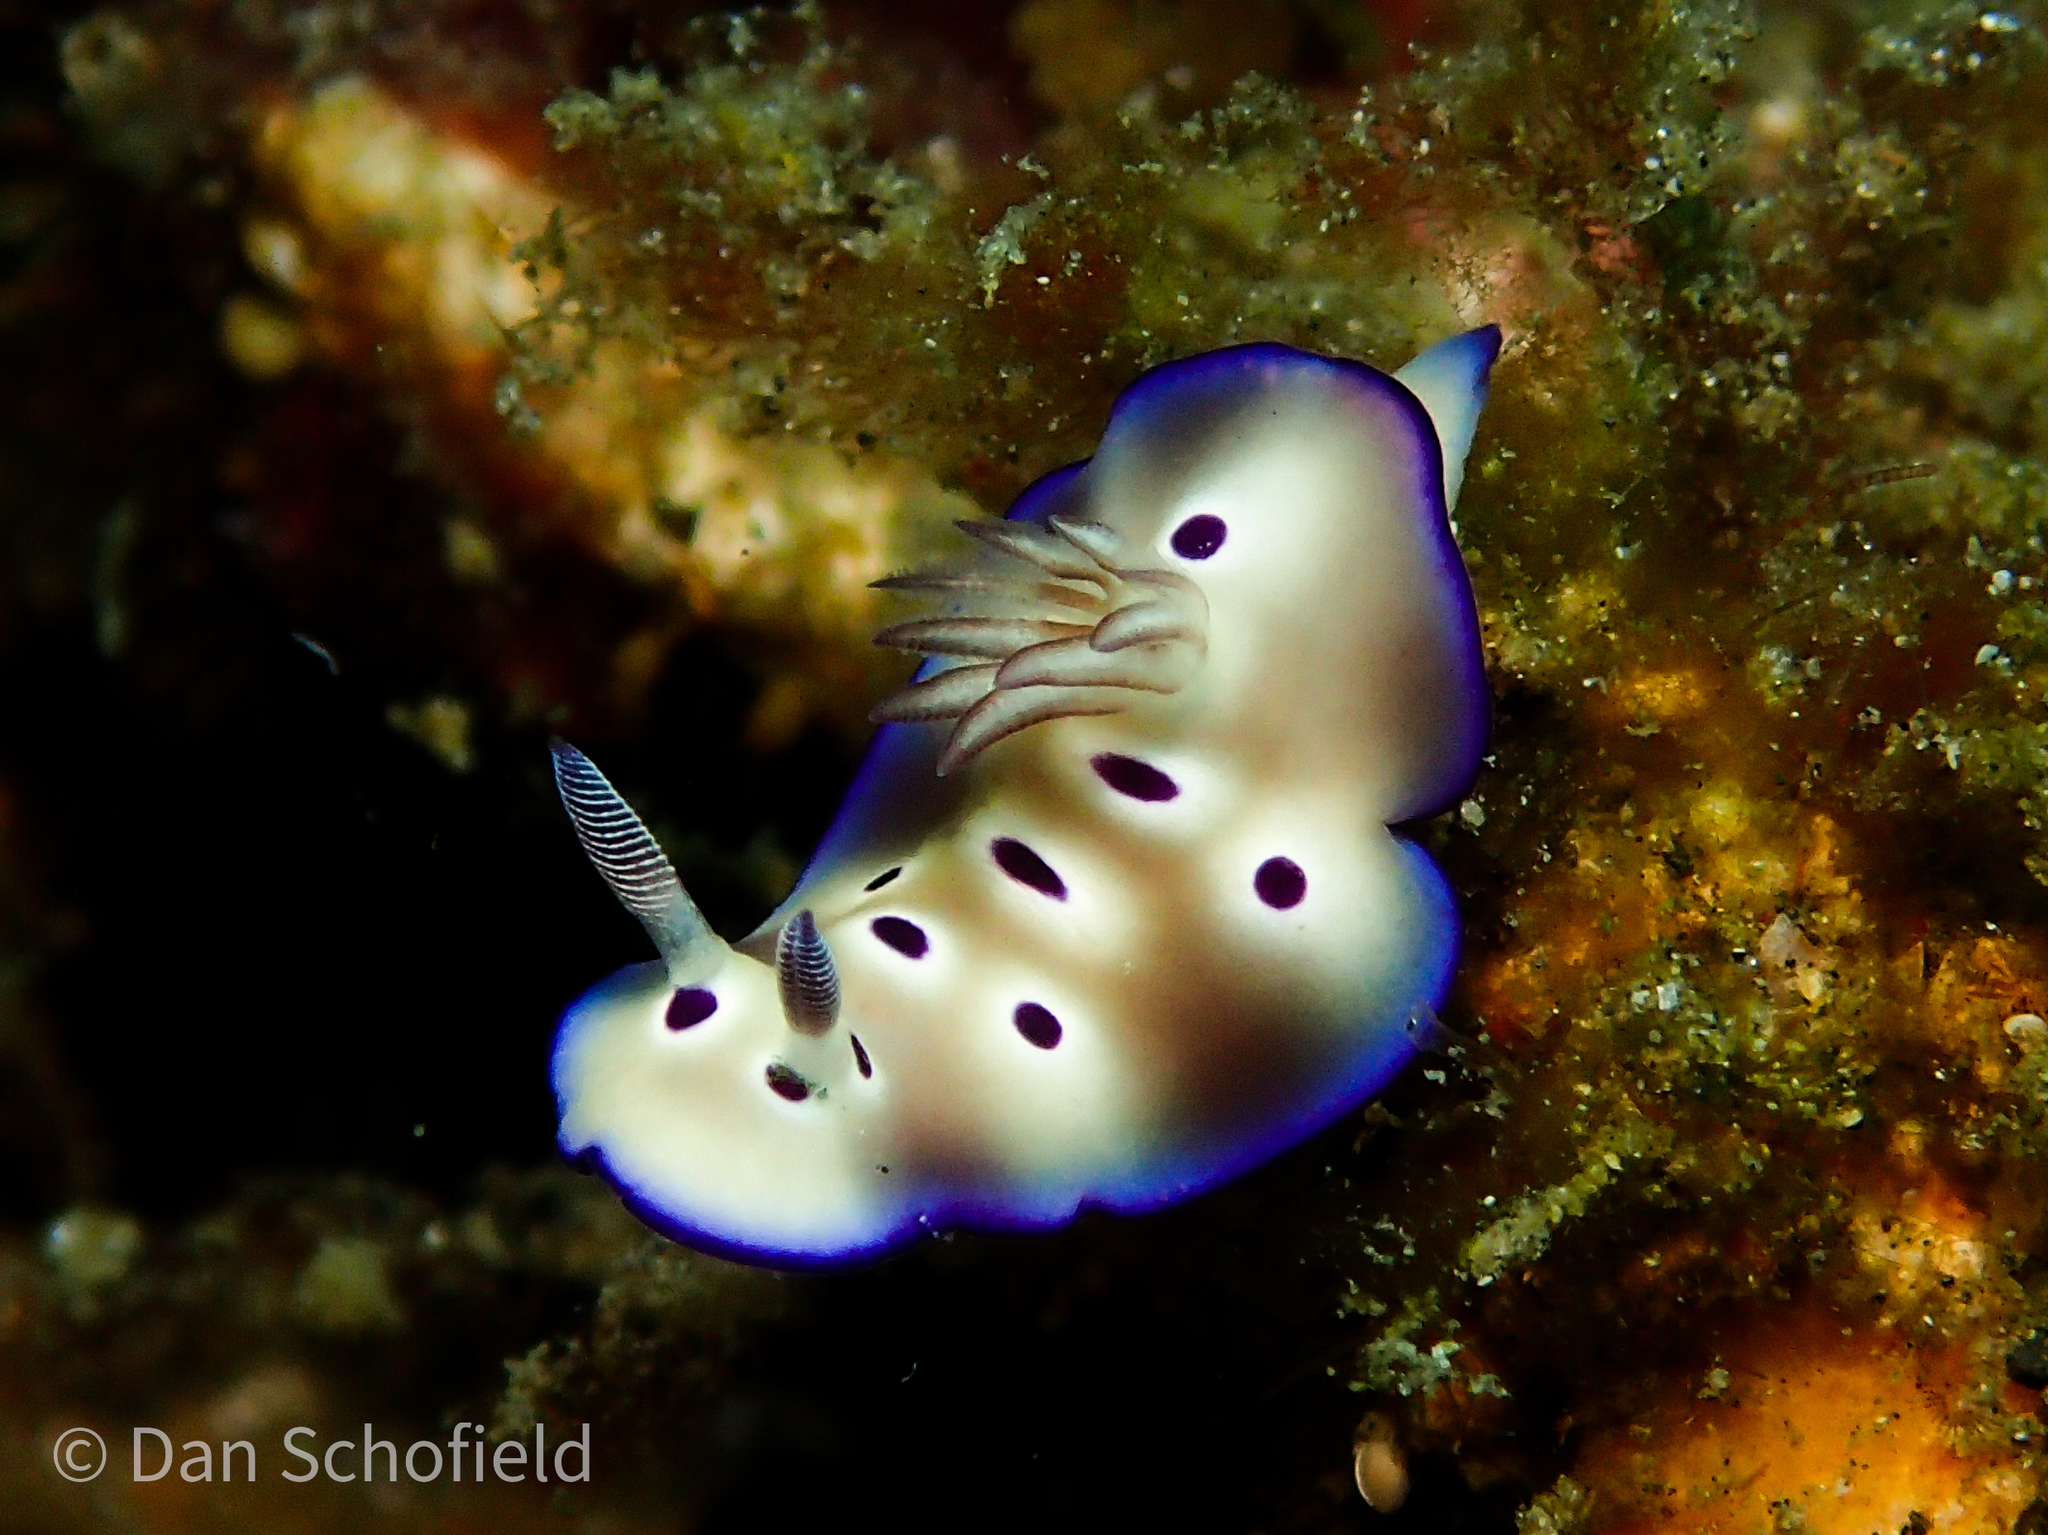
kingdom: Animalia
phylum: Mollusca
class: Gastropoda
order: Nudibranchia
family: Chromodorididae
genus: Hypselodoris
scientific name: Hypselodoris tryoni
